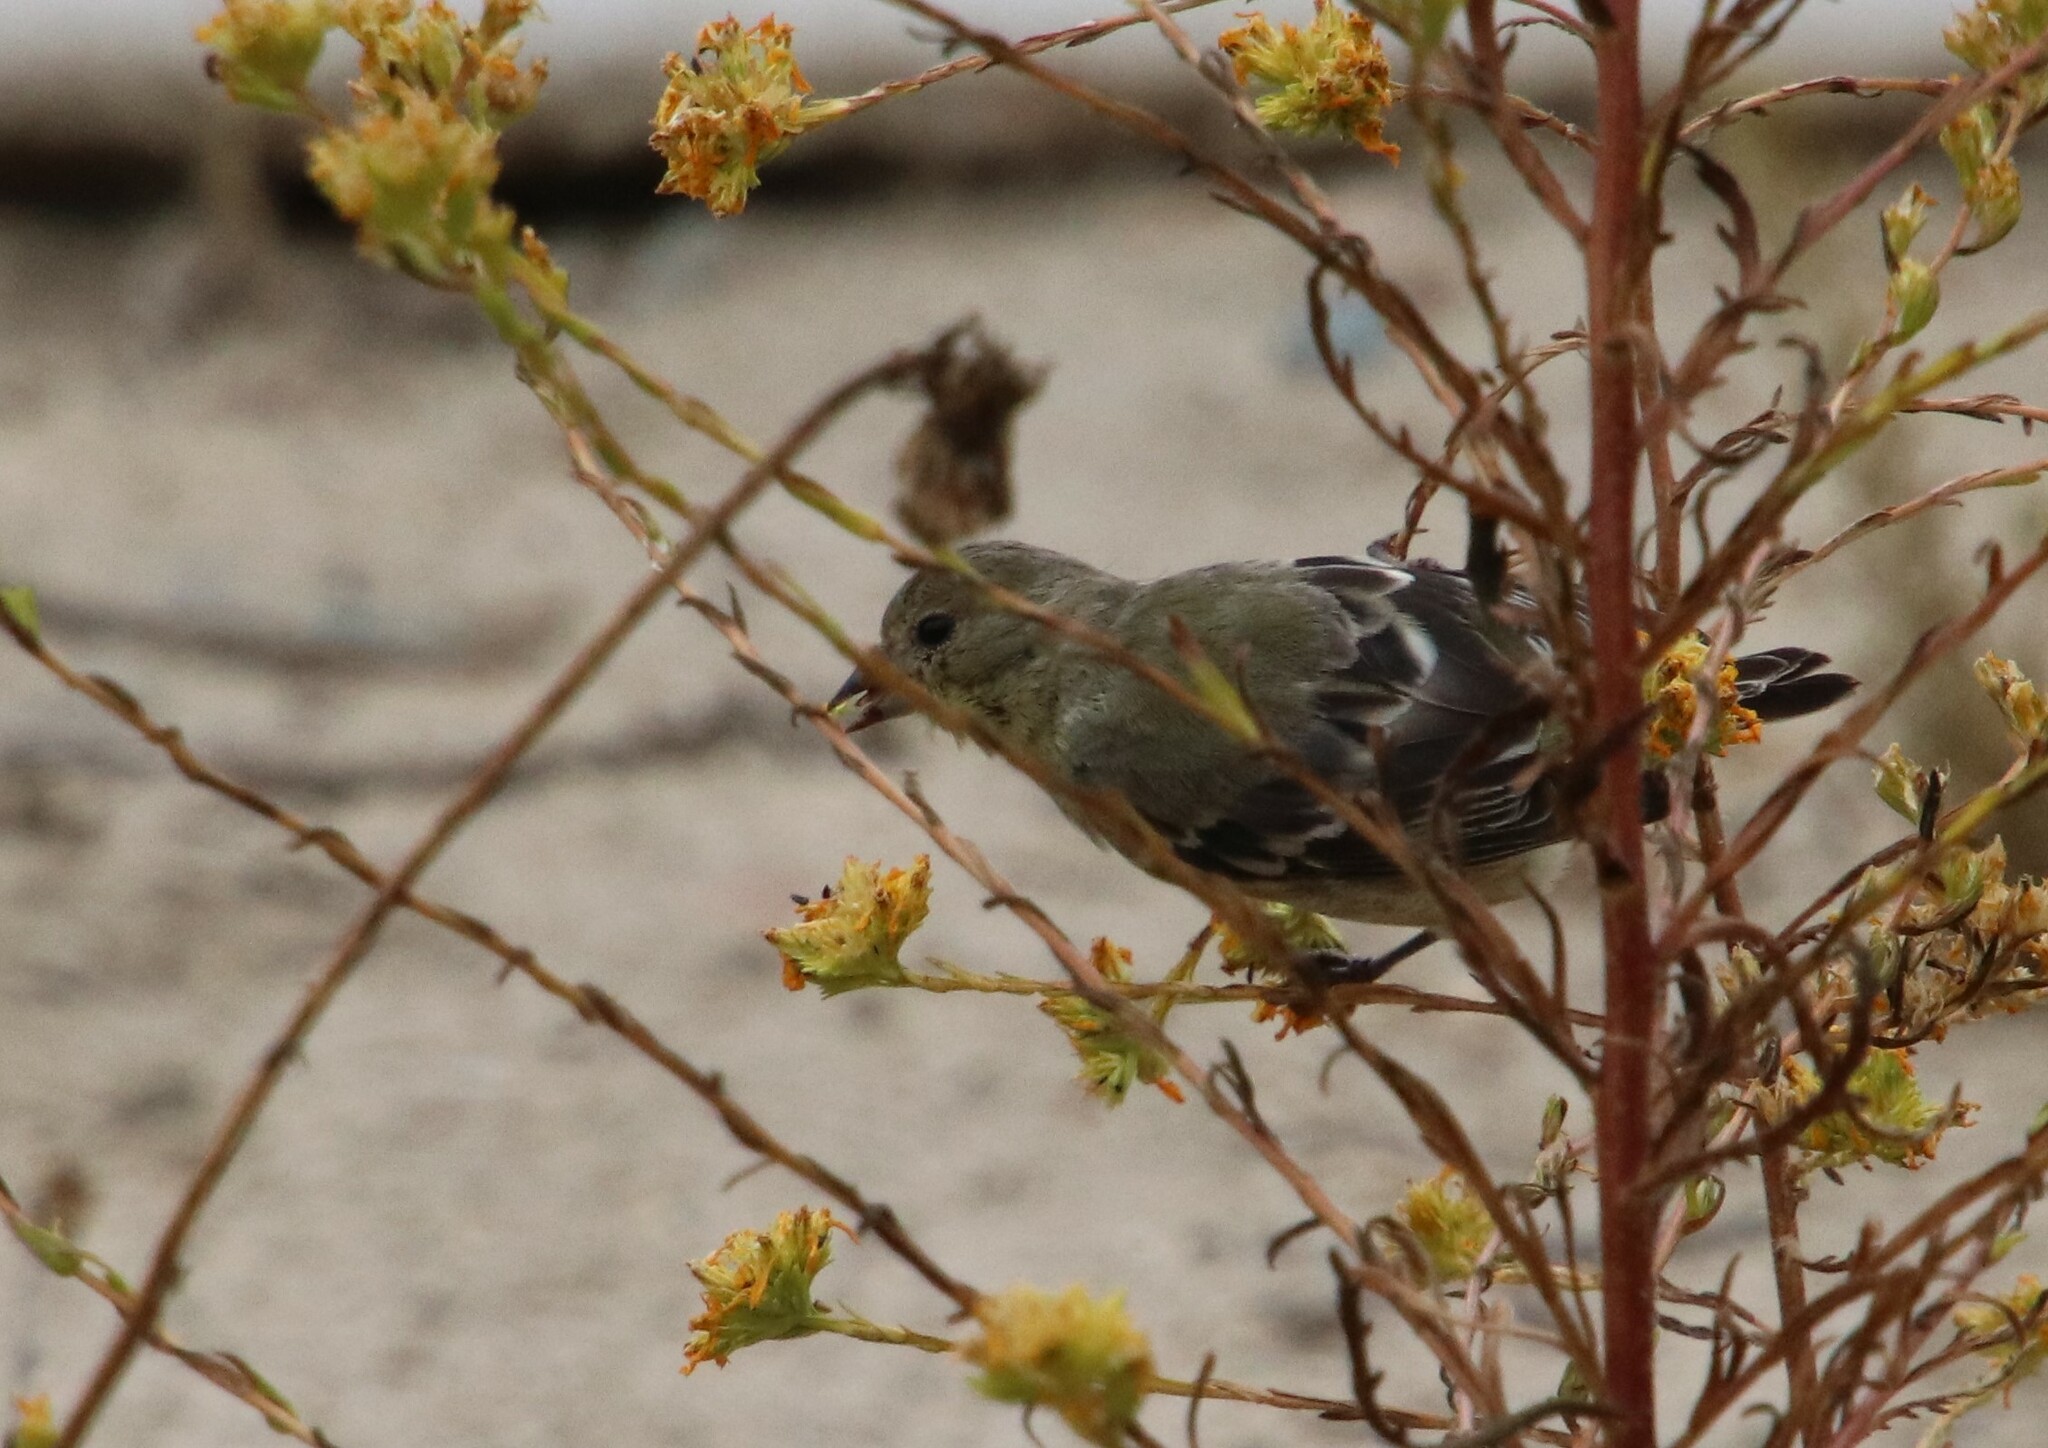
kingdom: Animalia
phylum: Chordata
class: Aves
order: Passeriformes
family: Fringillidae
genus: Spinus
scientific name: Spinus psaltria
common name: Lesser goldfinch
